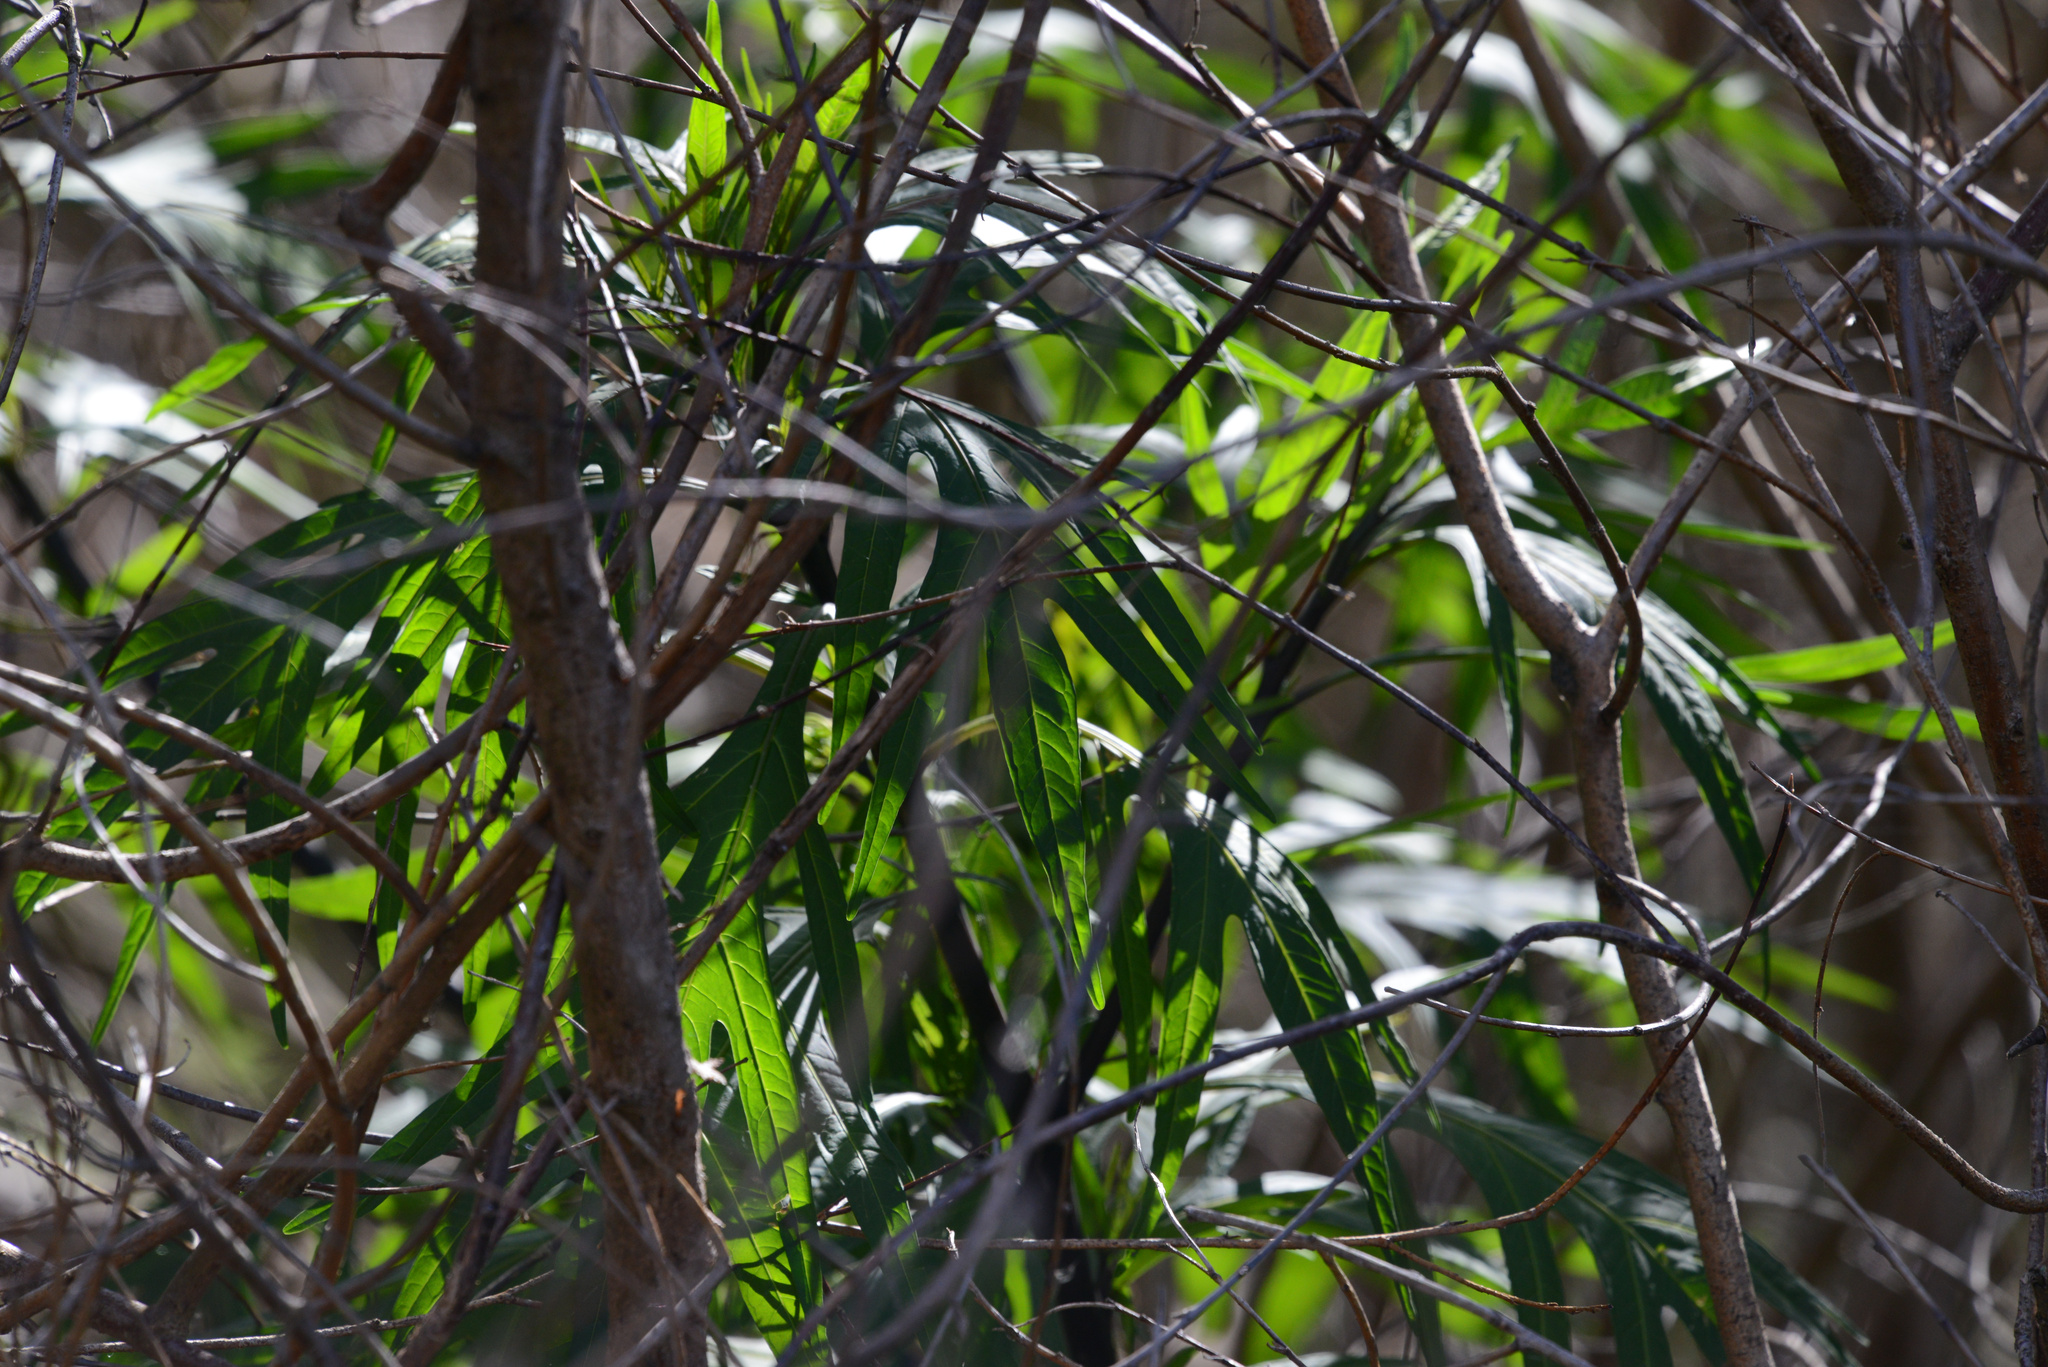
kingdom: Plantae
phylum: Tracheophyta
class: Magnoliopsida
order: Solanales
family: Solanaceae
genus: Solanum
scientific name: Solanum
